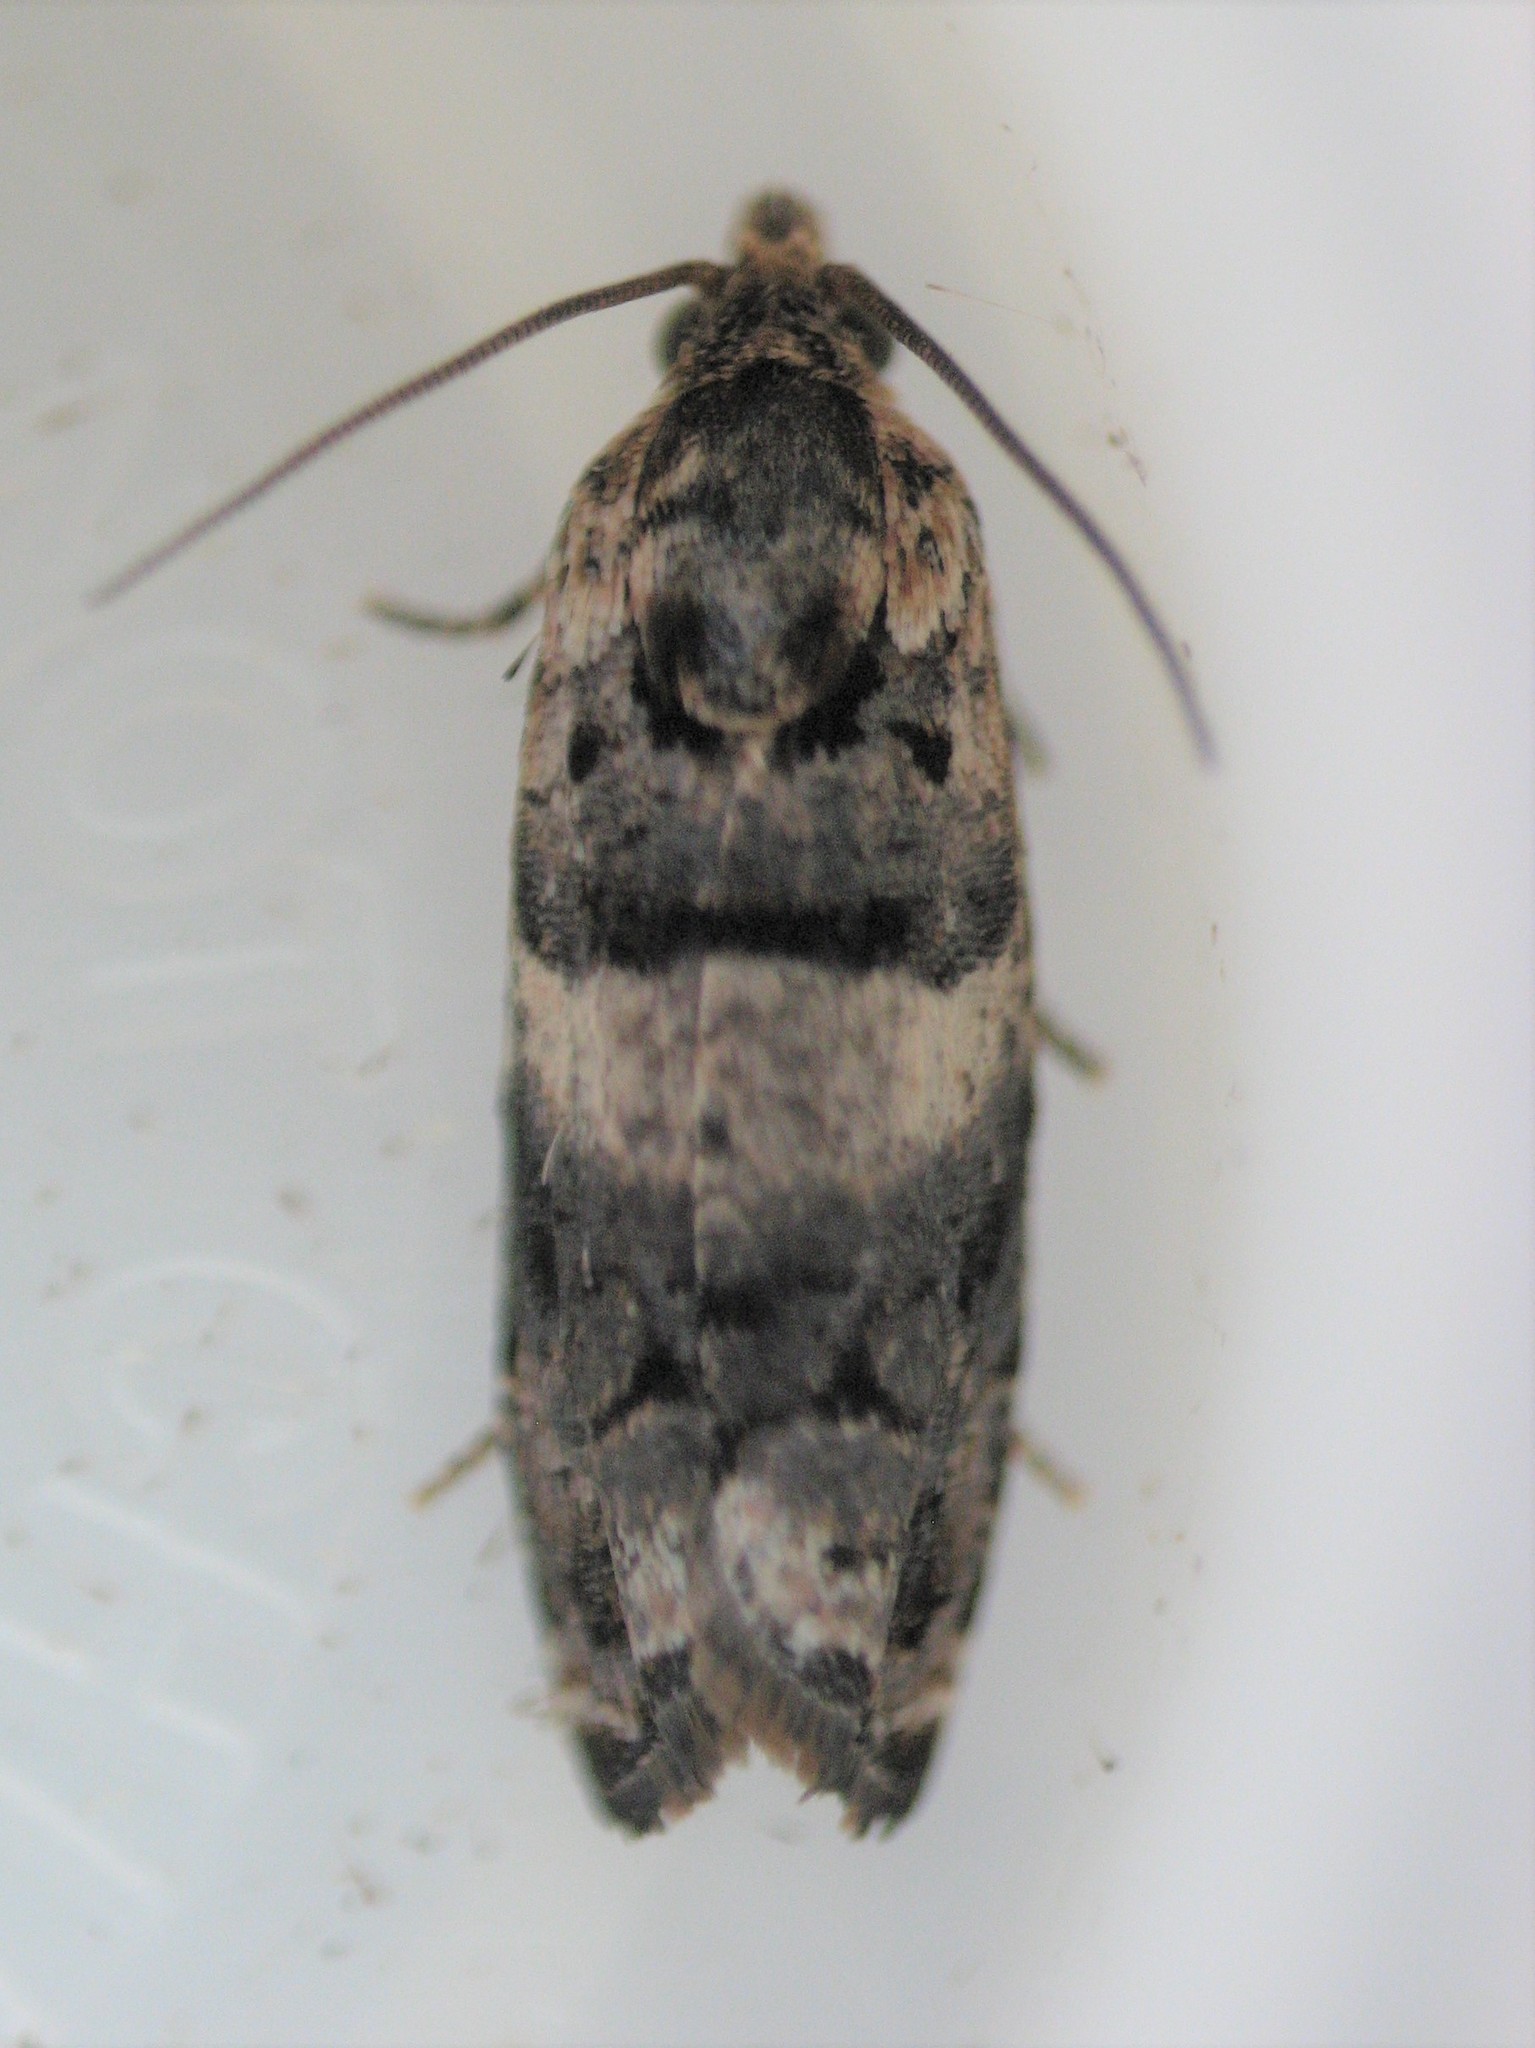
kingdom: Animalia
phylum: Arthropoda
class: Insecta
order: Lepidoptera
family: Tortricidae
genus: Epiblema
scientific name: Epiblema iowana
